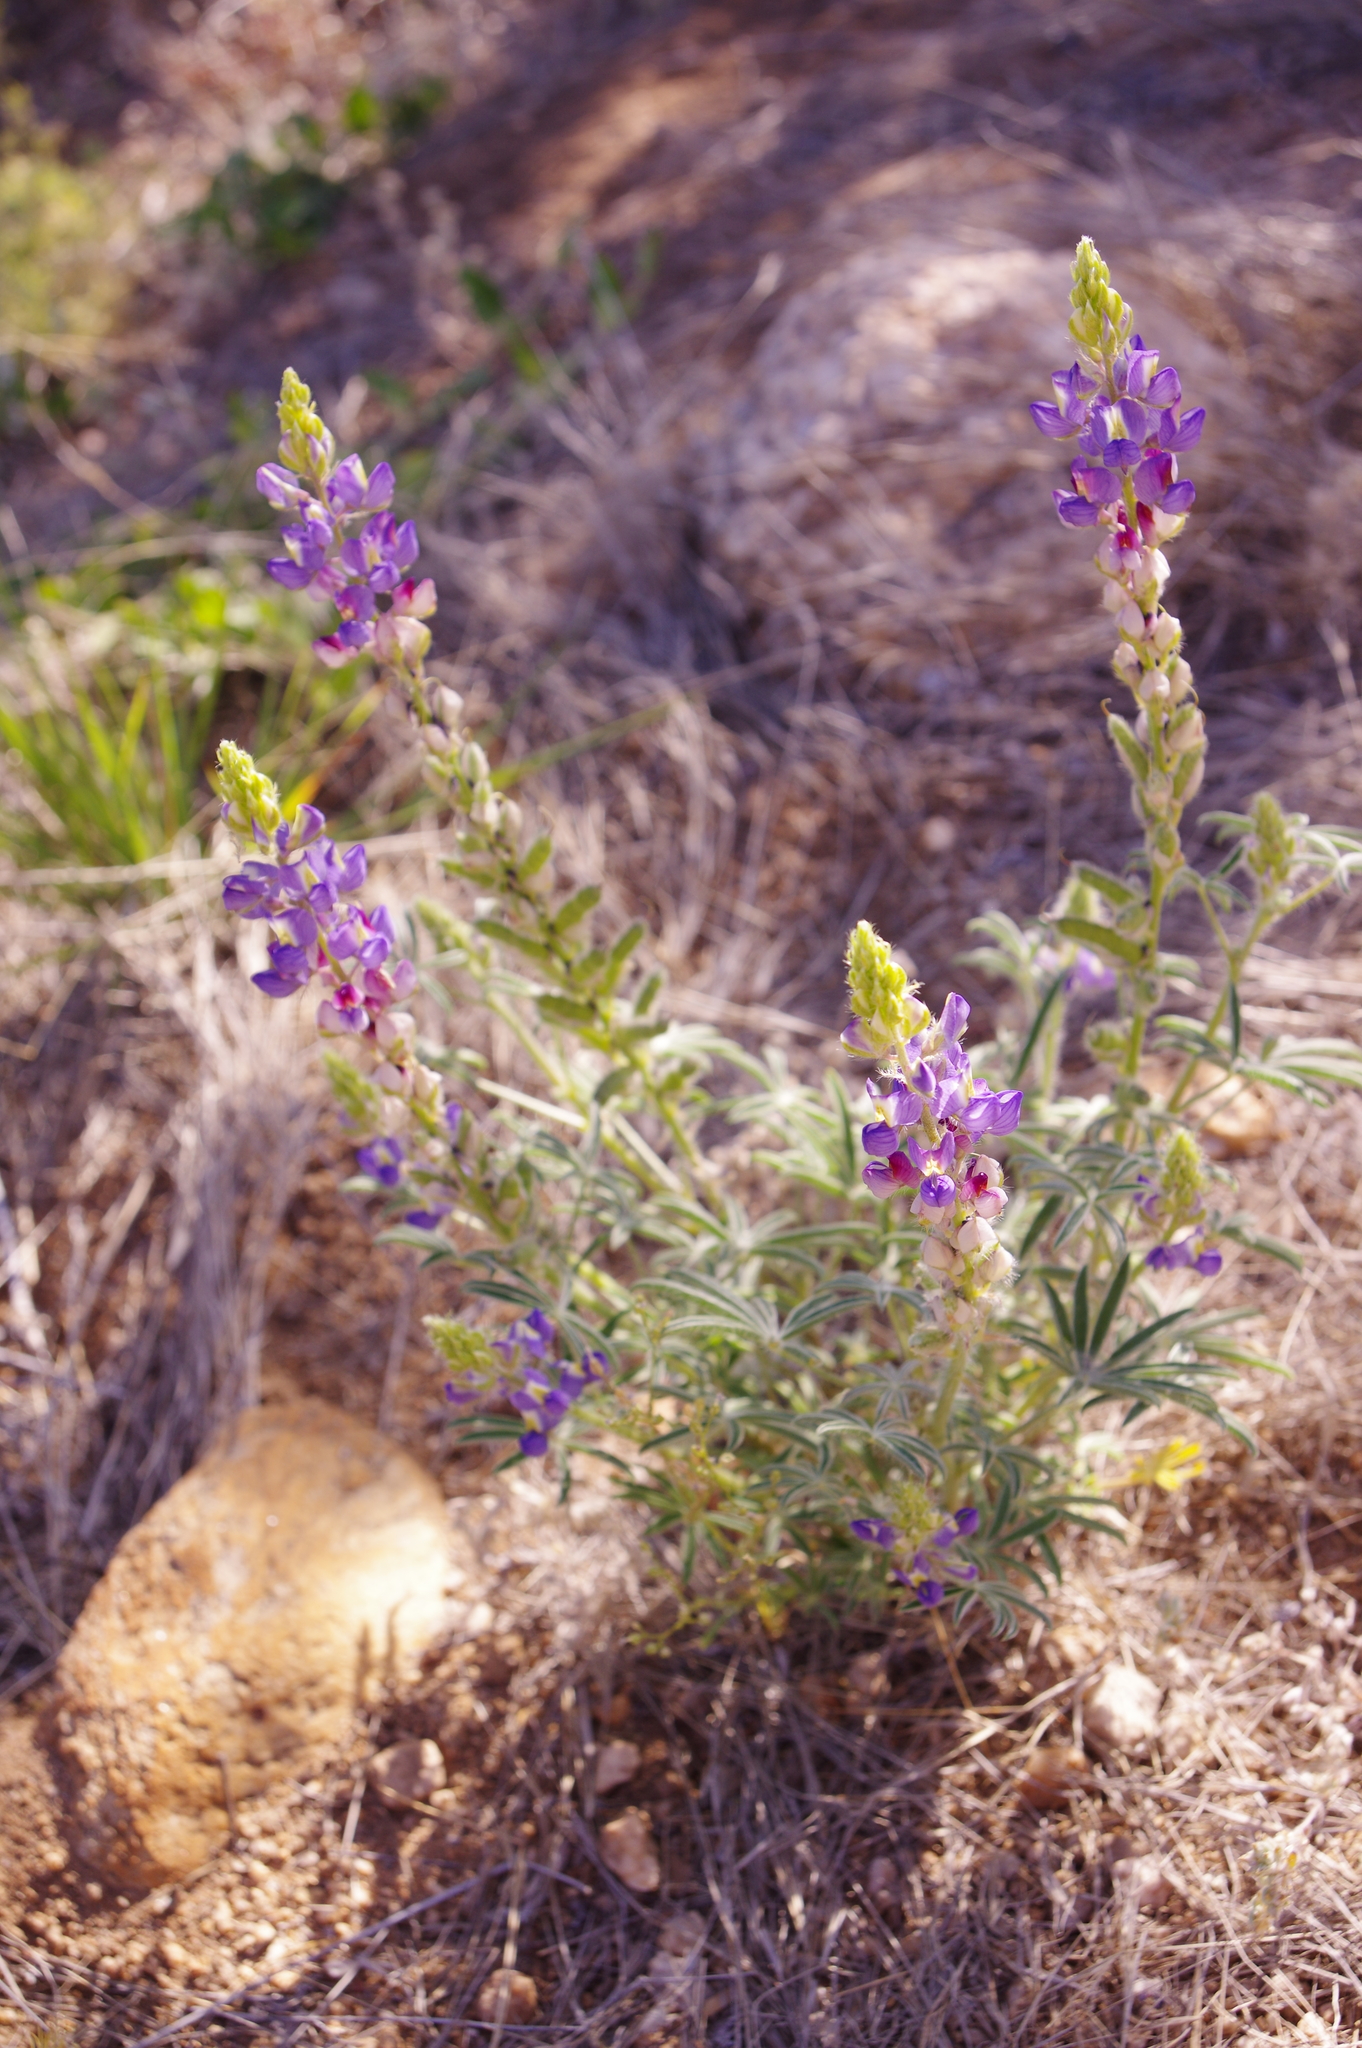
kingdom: Plantae
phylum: Tracheophyta
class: Magnoliopsida
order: Fabales
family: Fabaceae
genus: Lupinus
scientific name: Lupinus sparsiflorus
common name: Coulter's lupine
